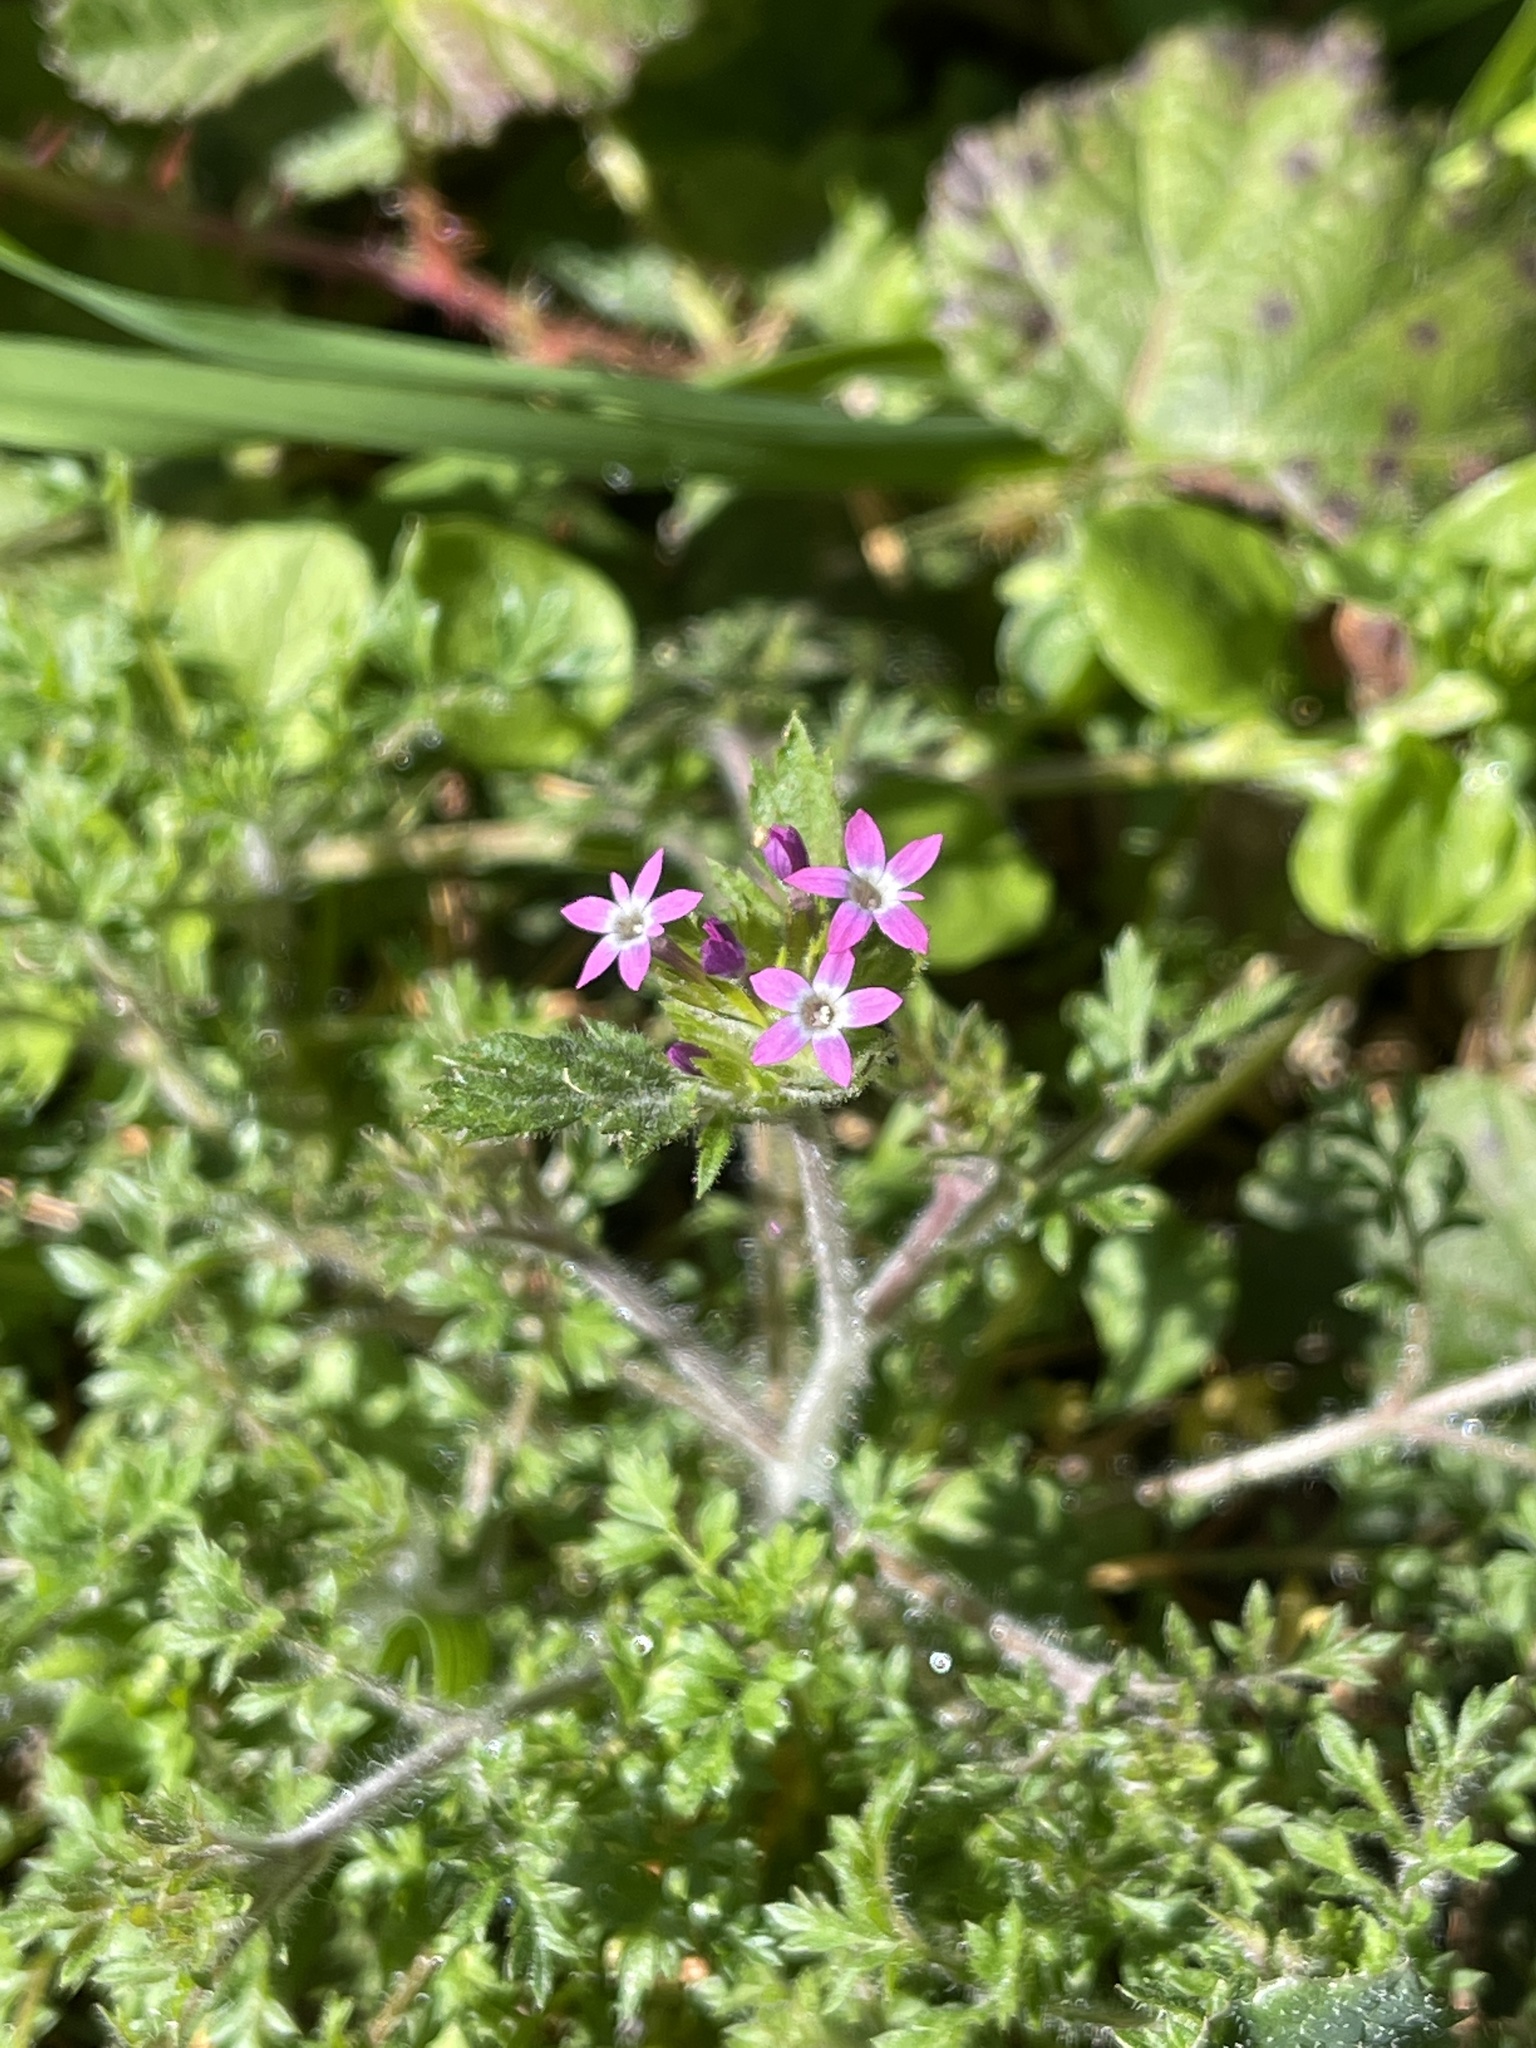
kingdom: Plantae
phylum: Tracheophyta
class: Magnoliopsida
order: Ericales
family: Polemoniaceae
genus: Collomia
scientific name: Collomia heterophylla
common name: Variable-leaved collomia
